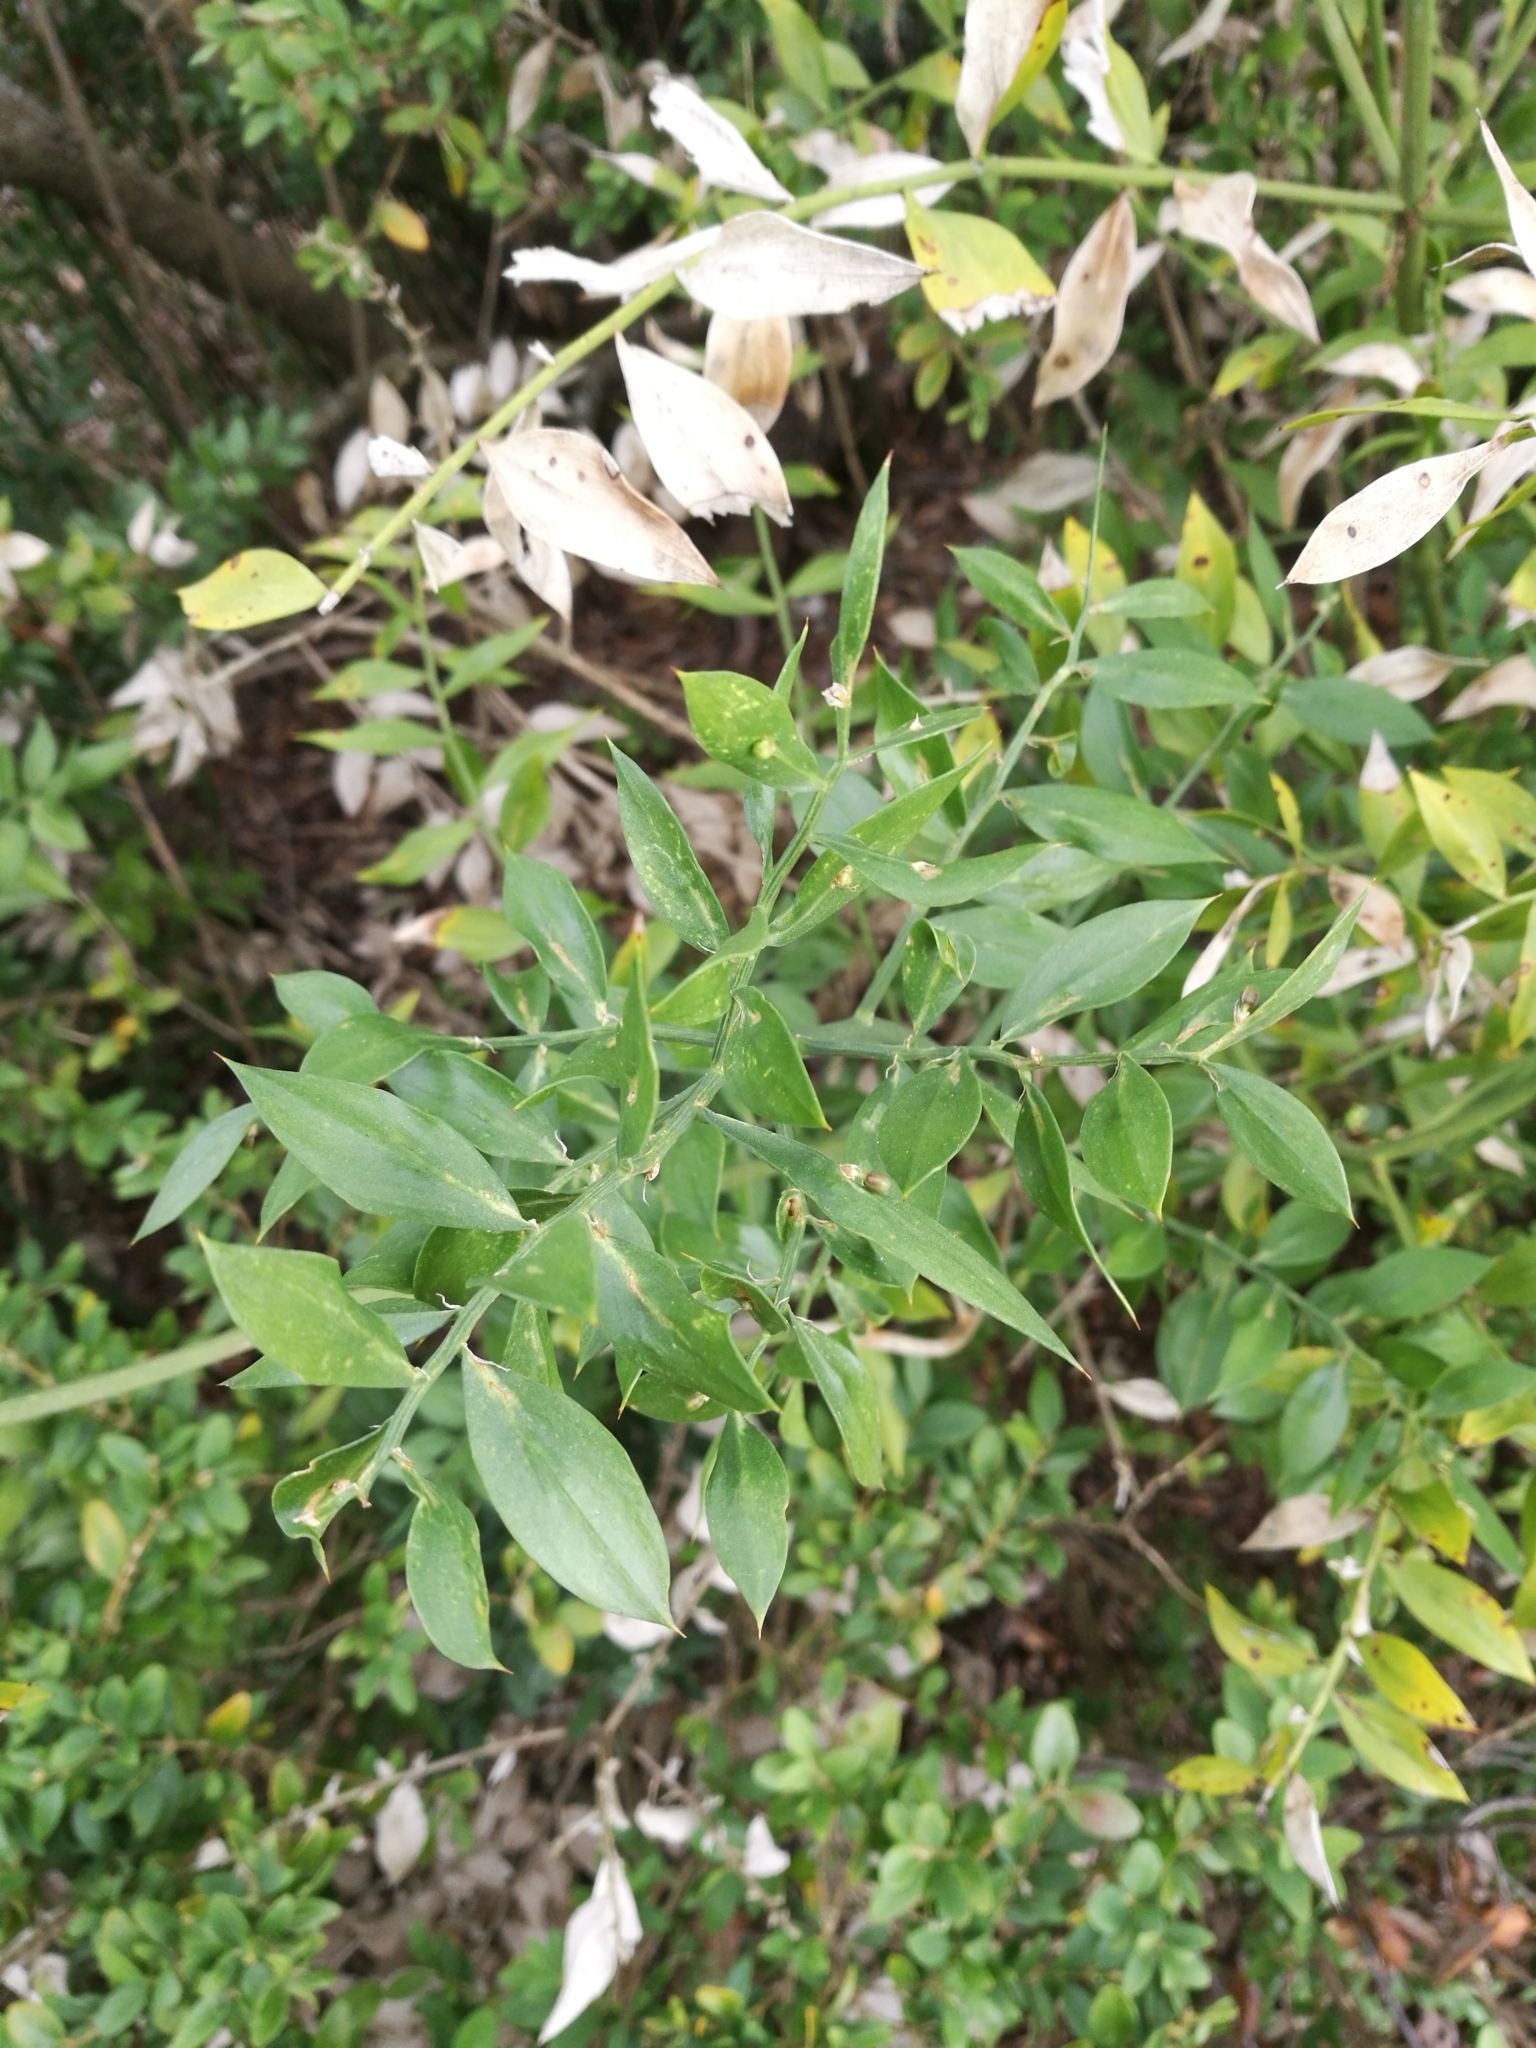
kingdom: Plantae
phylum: Tracheophyta
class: Liliopsida
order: Asparagales
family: Asparagaceae
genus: Ruscus
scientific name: Ruscus aculeatus
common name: Butcher's-broom
